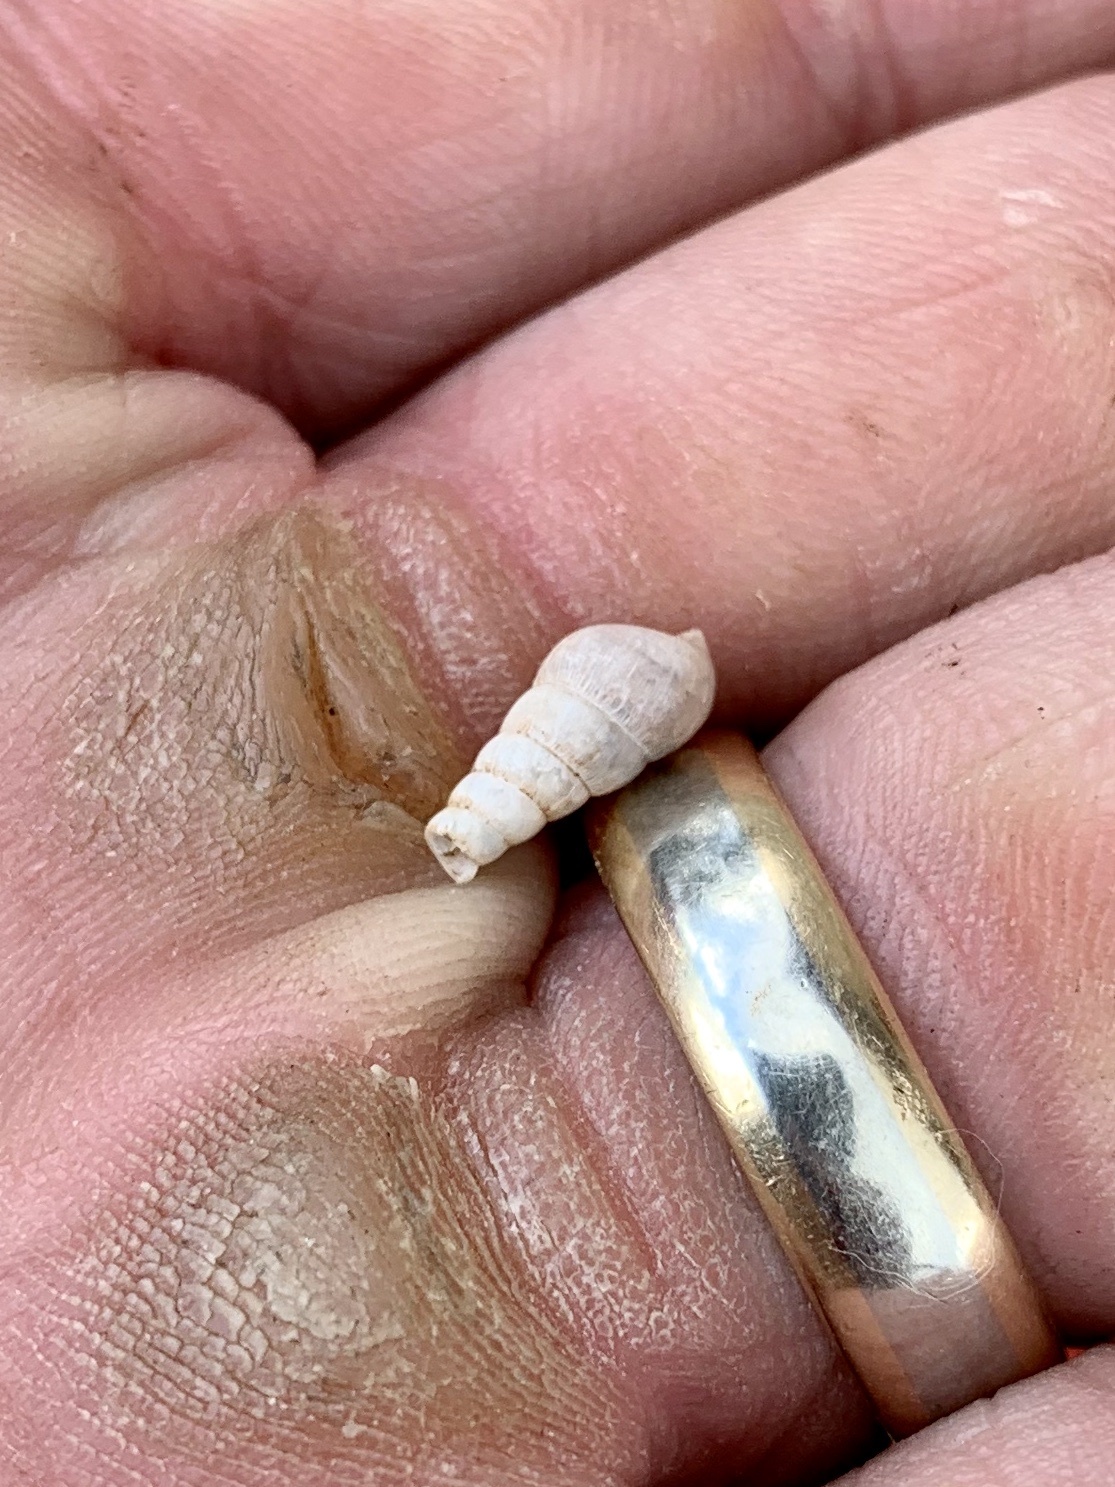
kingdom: Animalia
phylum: Mollusca
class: Gastropoda
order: Stylommatophora
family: Achatinidae
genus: Rumina
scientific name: Rumina decollata
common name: Decollate snail
